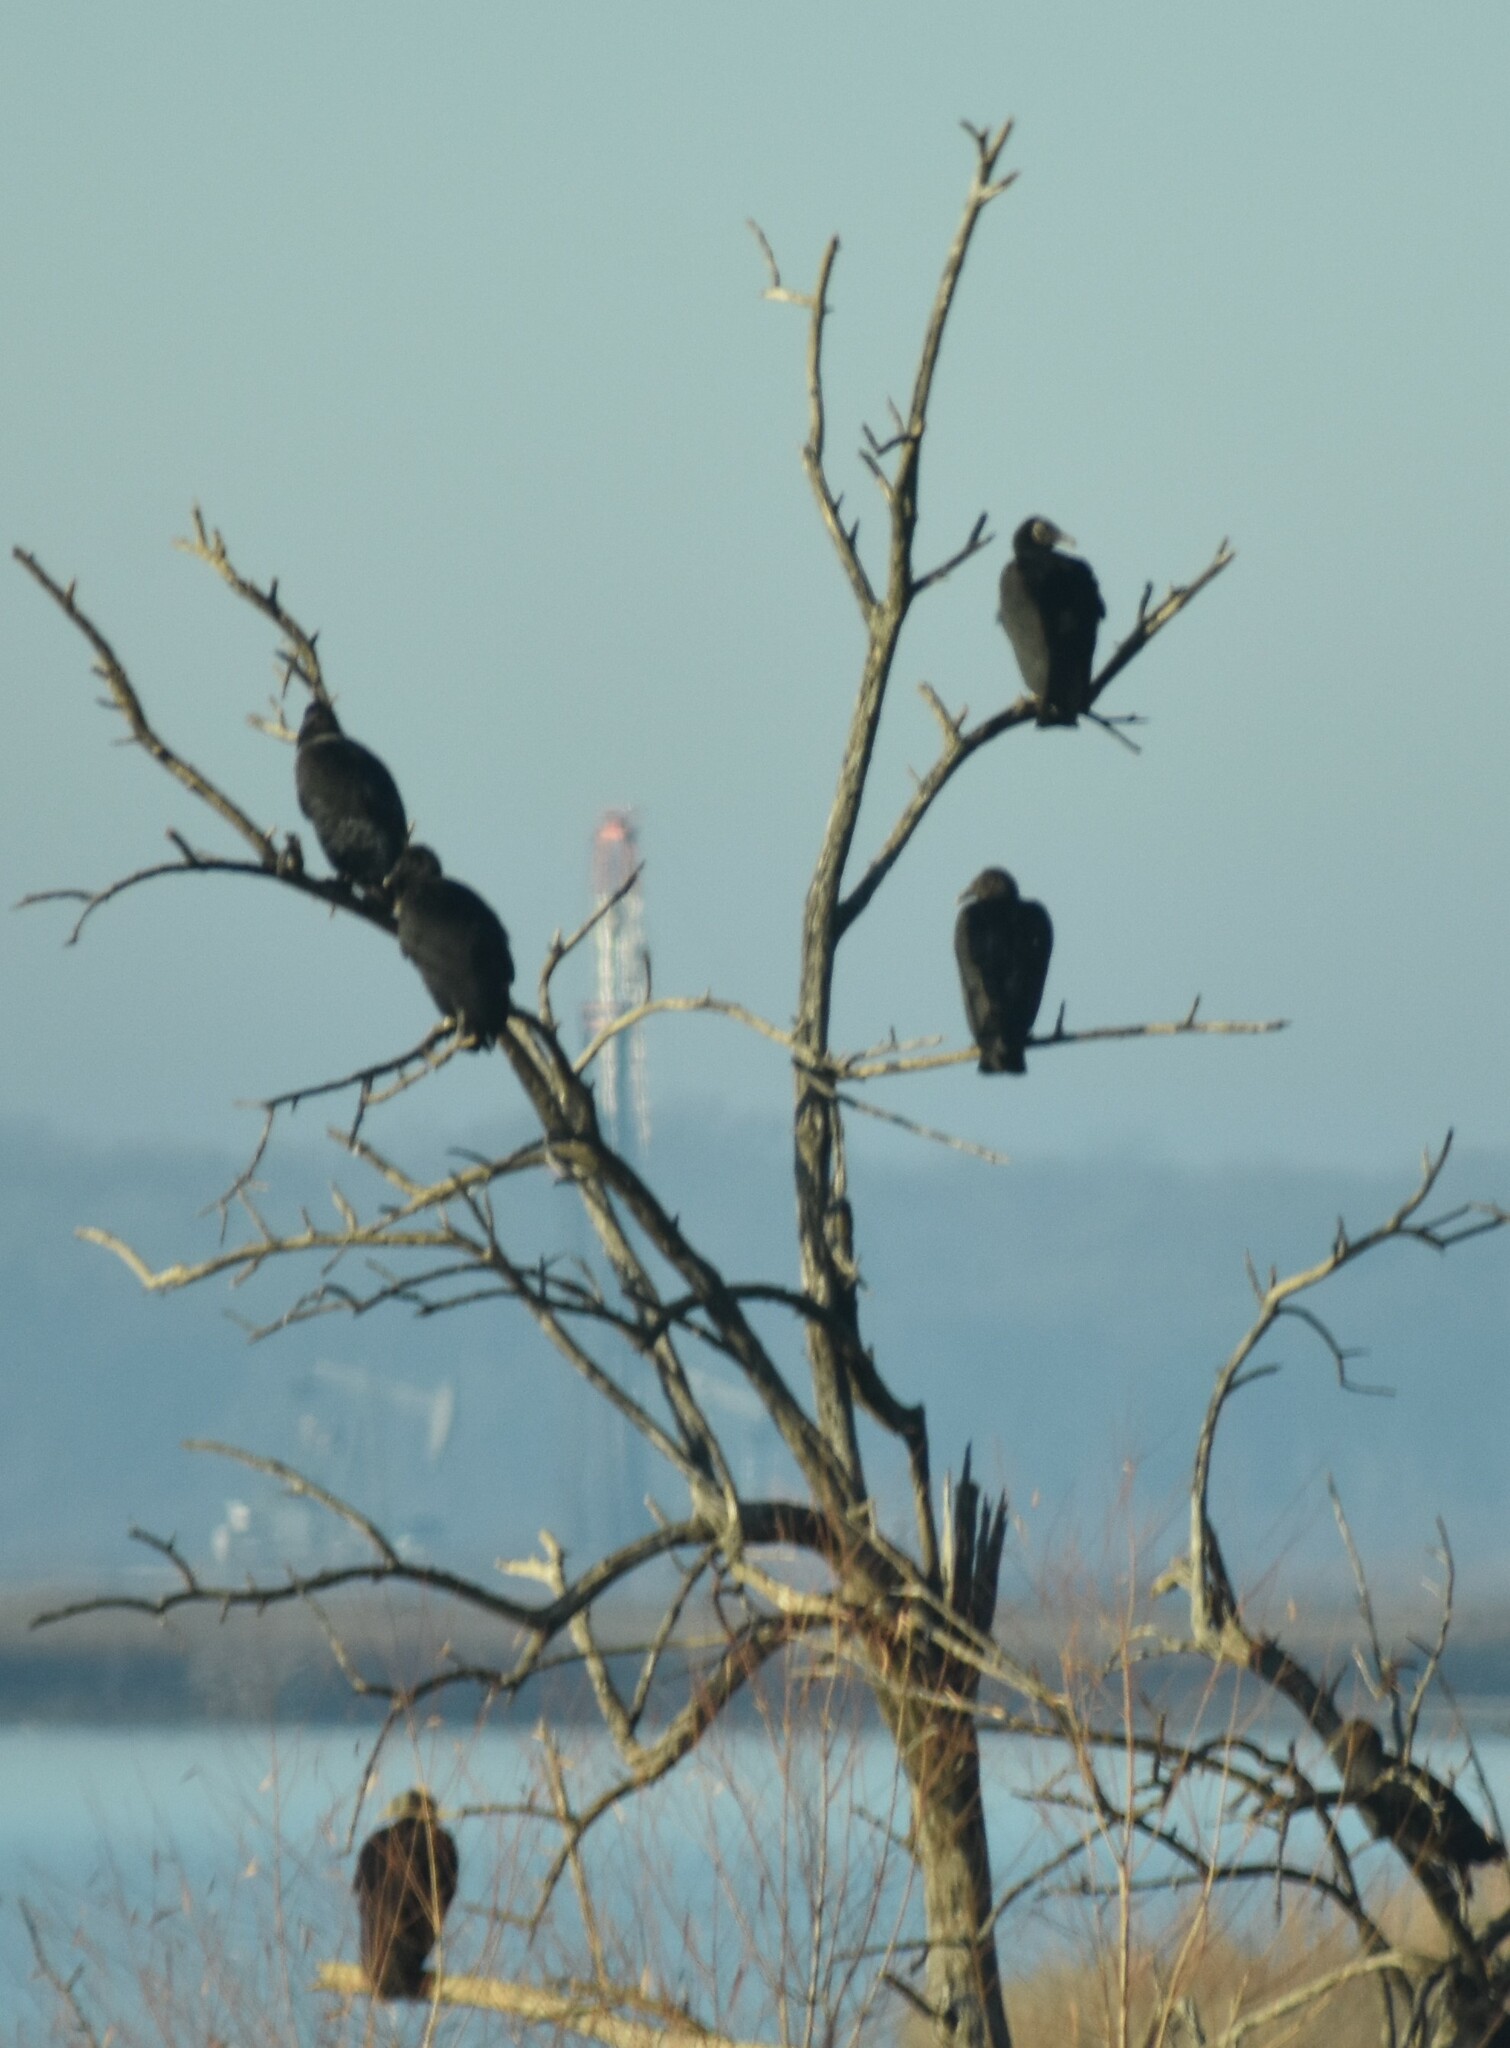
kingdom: Animalia
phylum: Chordata
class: Aves
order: Accipitriformes
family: Cathartidae
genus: Coragyps
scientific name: Coragyps atratus
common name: Black vulture
